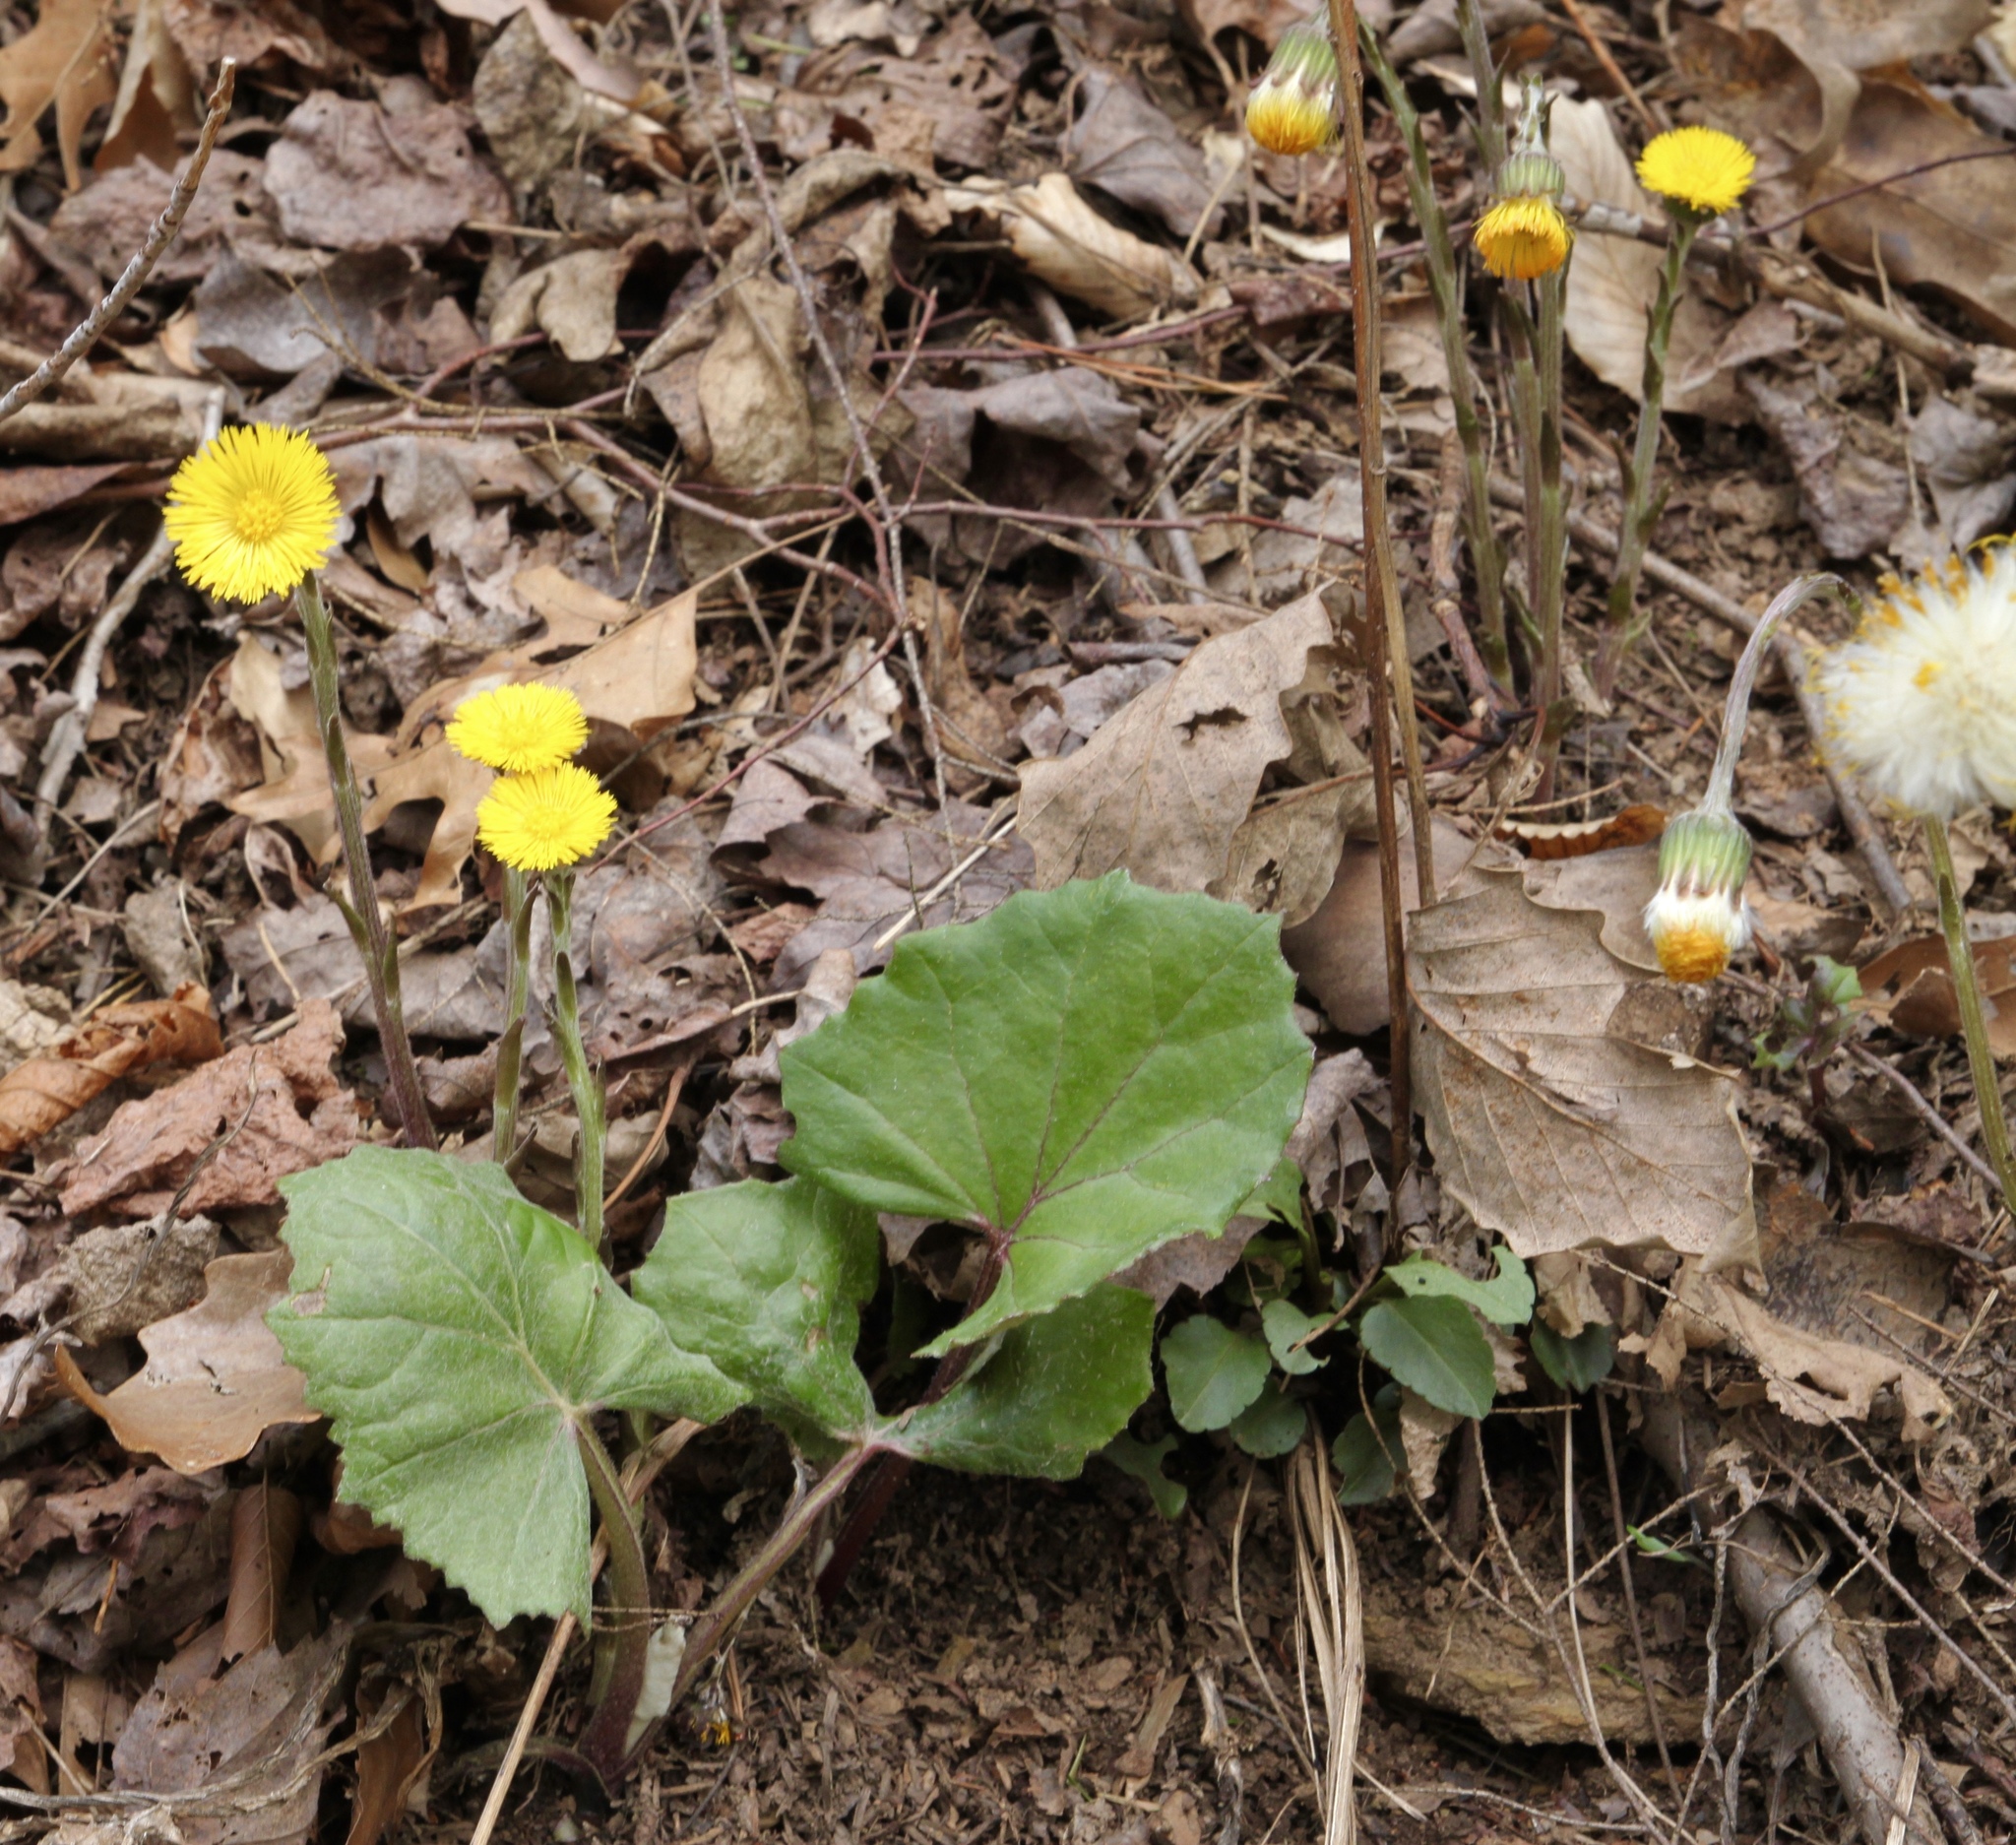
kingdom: Plantae
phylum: Tracheophyta
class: Magnoliopsida
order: Asterales
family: Asteraceae
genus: Tussilago
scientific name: Tussilago farfara
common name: Coltsfoot
